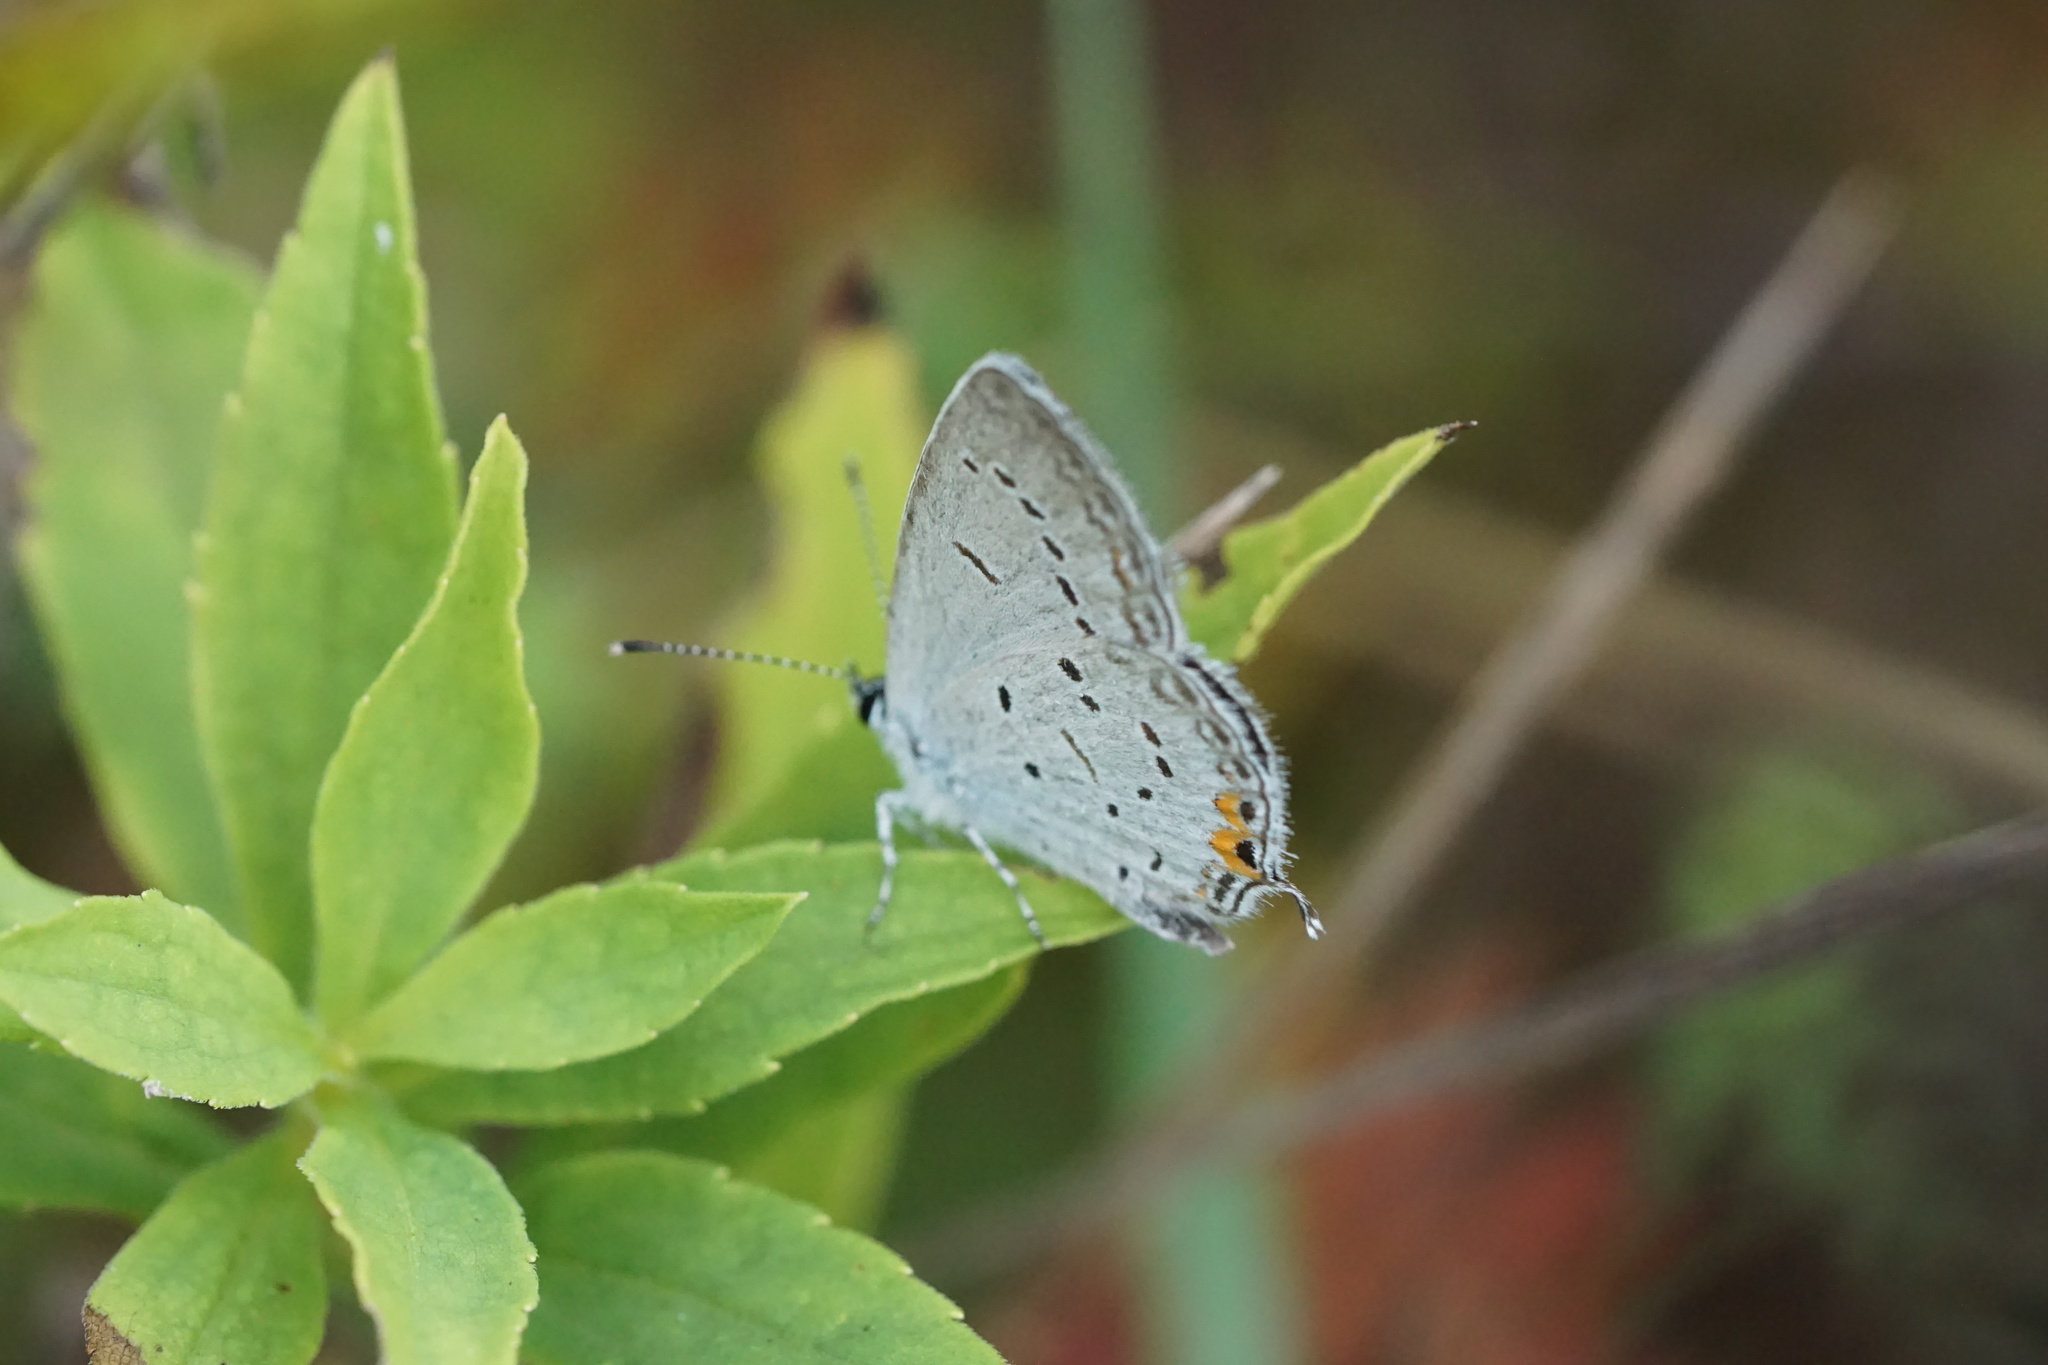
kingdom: Animalia
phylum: Arthropoda
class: Insecta
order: Lepidoptera
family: Lycaenidae
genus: Elkalyce
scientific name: Elkalyce comyntas
